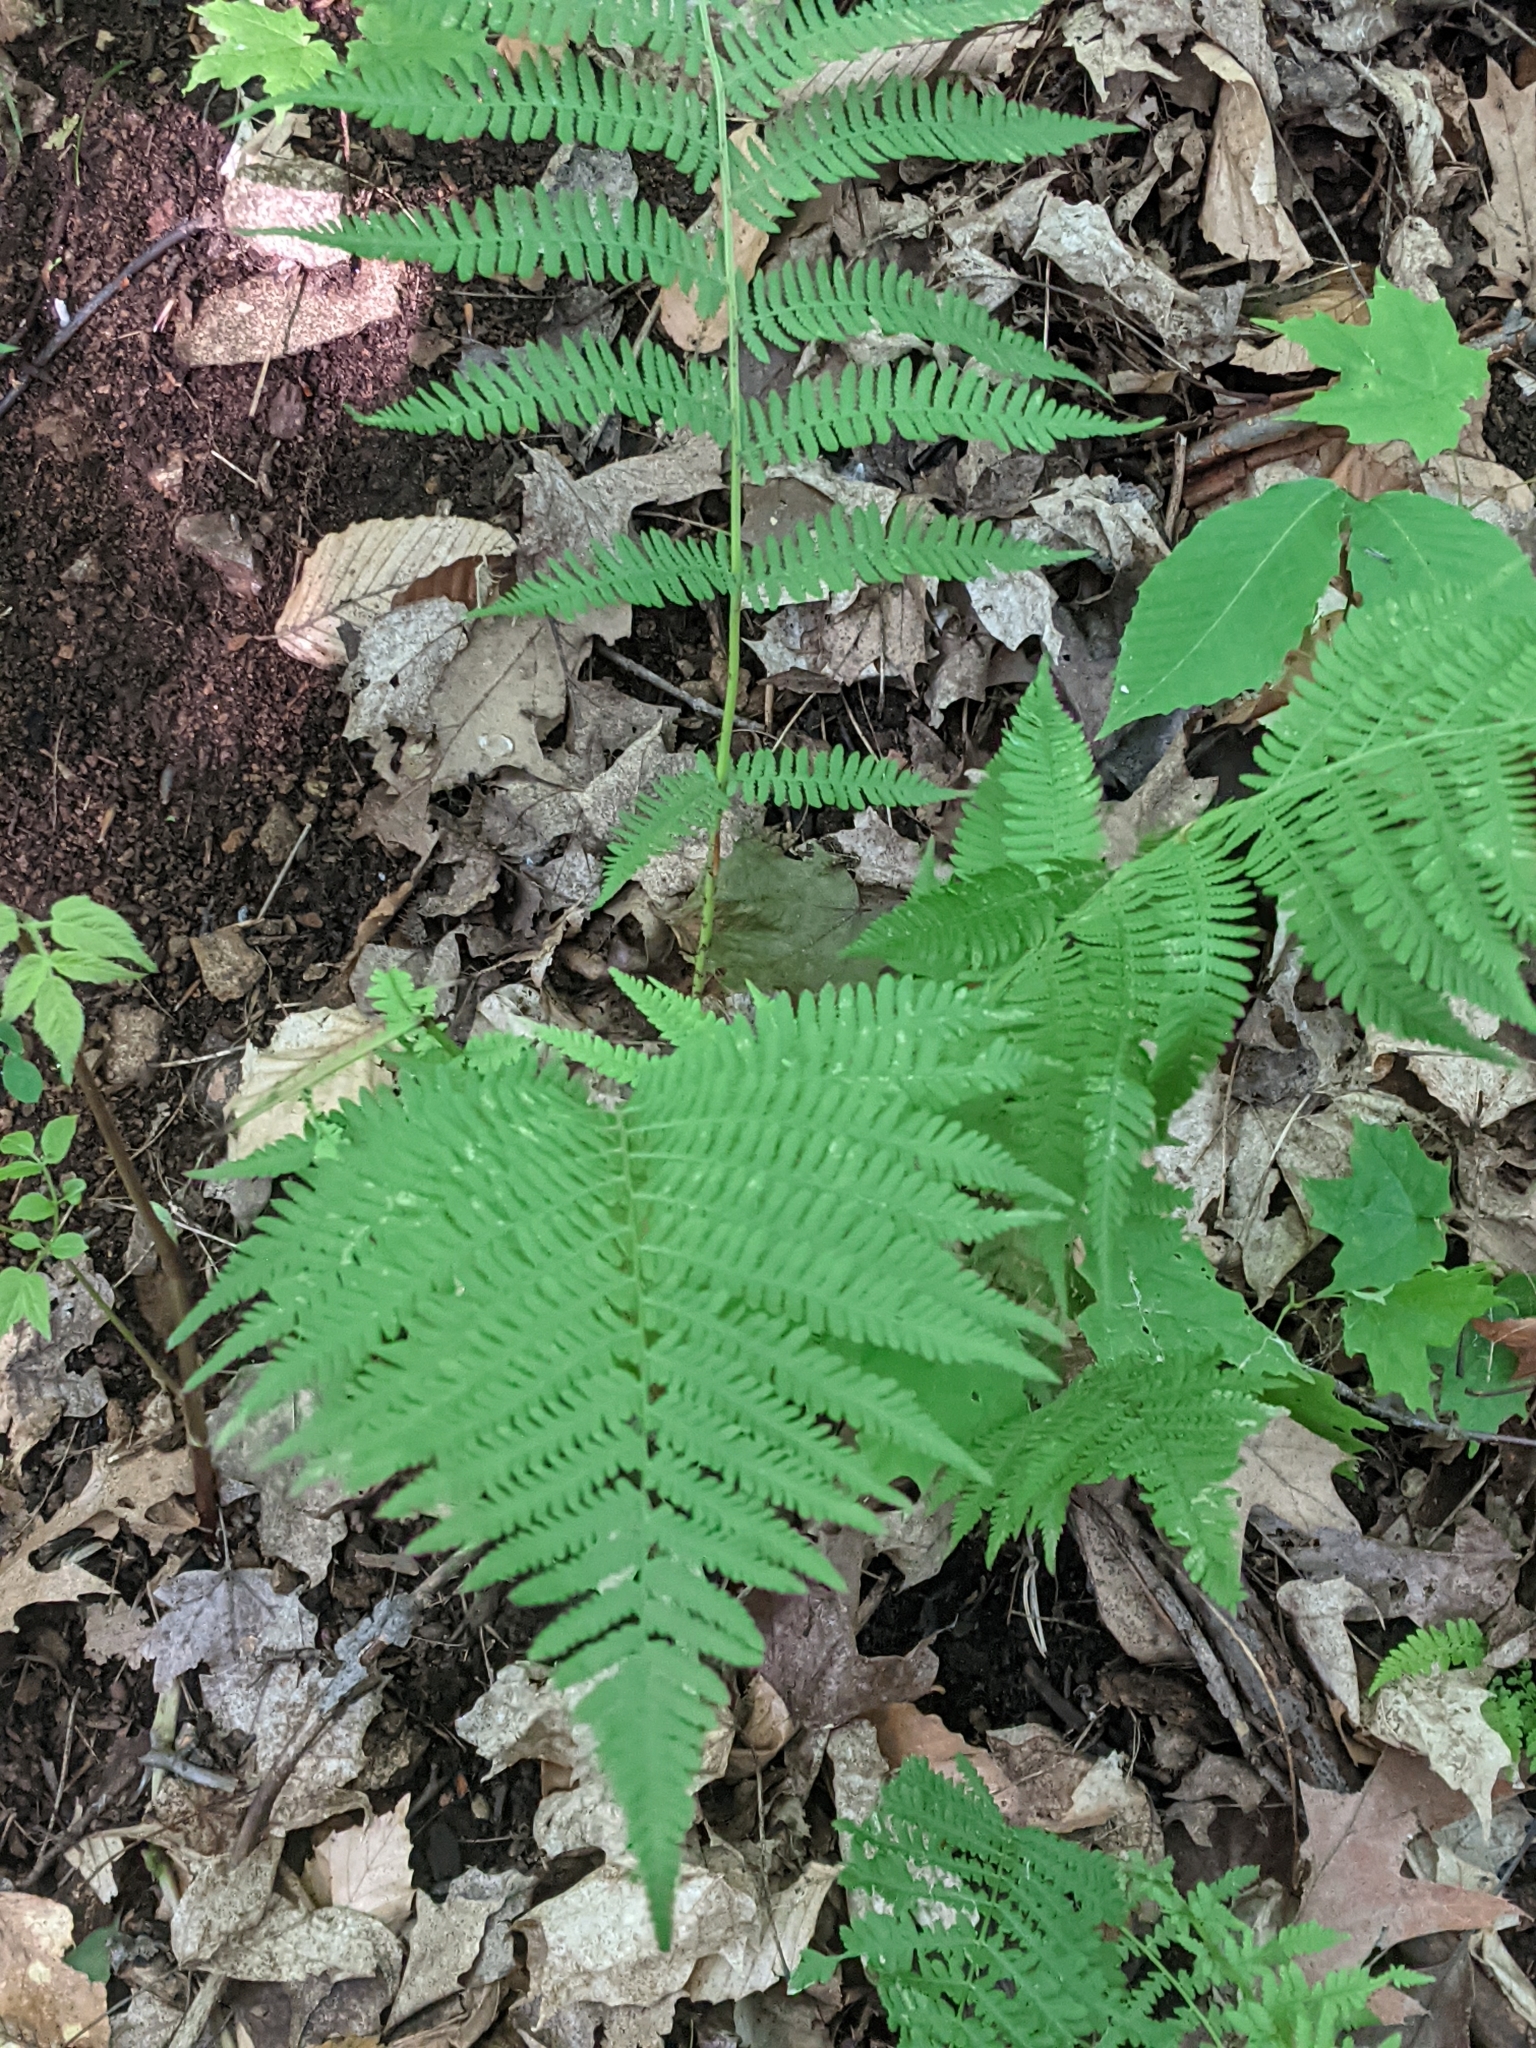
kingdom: Plantae
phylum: Tracheophyta
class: Polypodiopsida
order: Polypodiales
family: Athyriaceae
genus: Athyrium
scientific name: Athyrium angustum
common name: Northern lady fern
